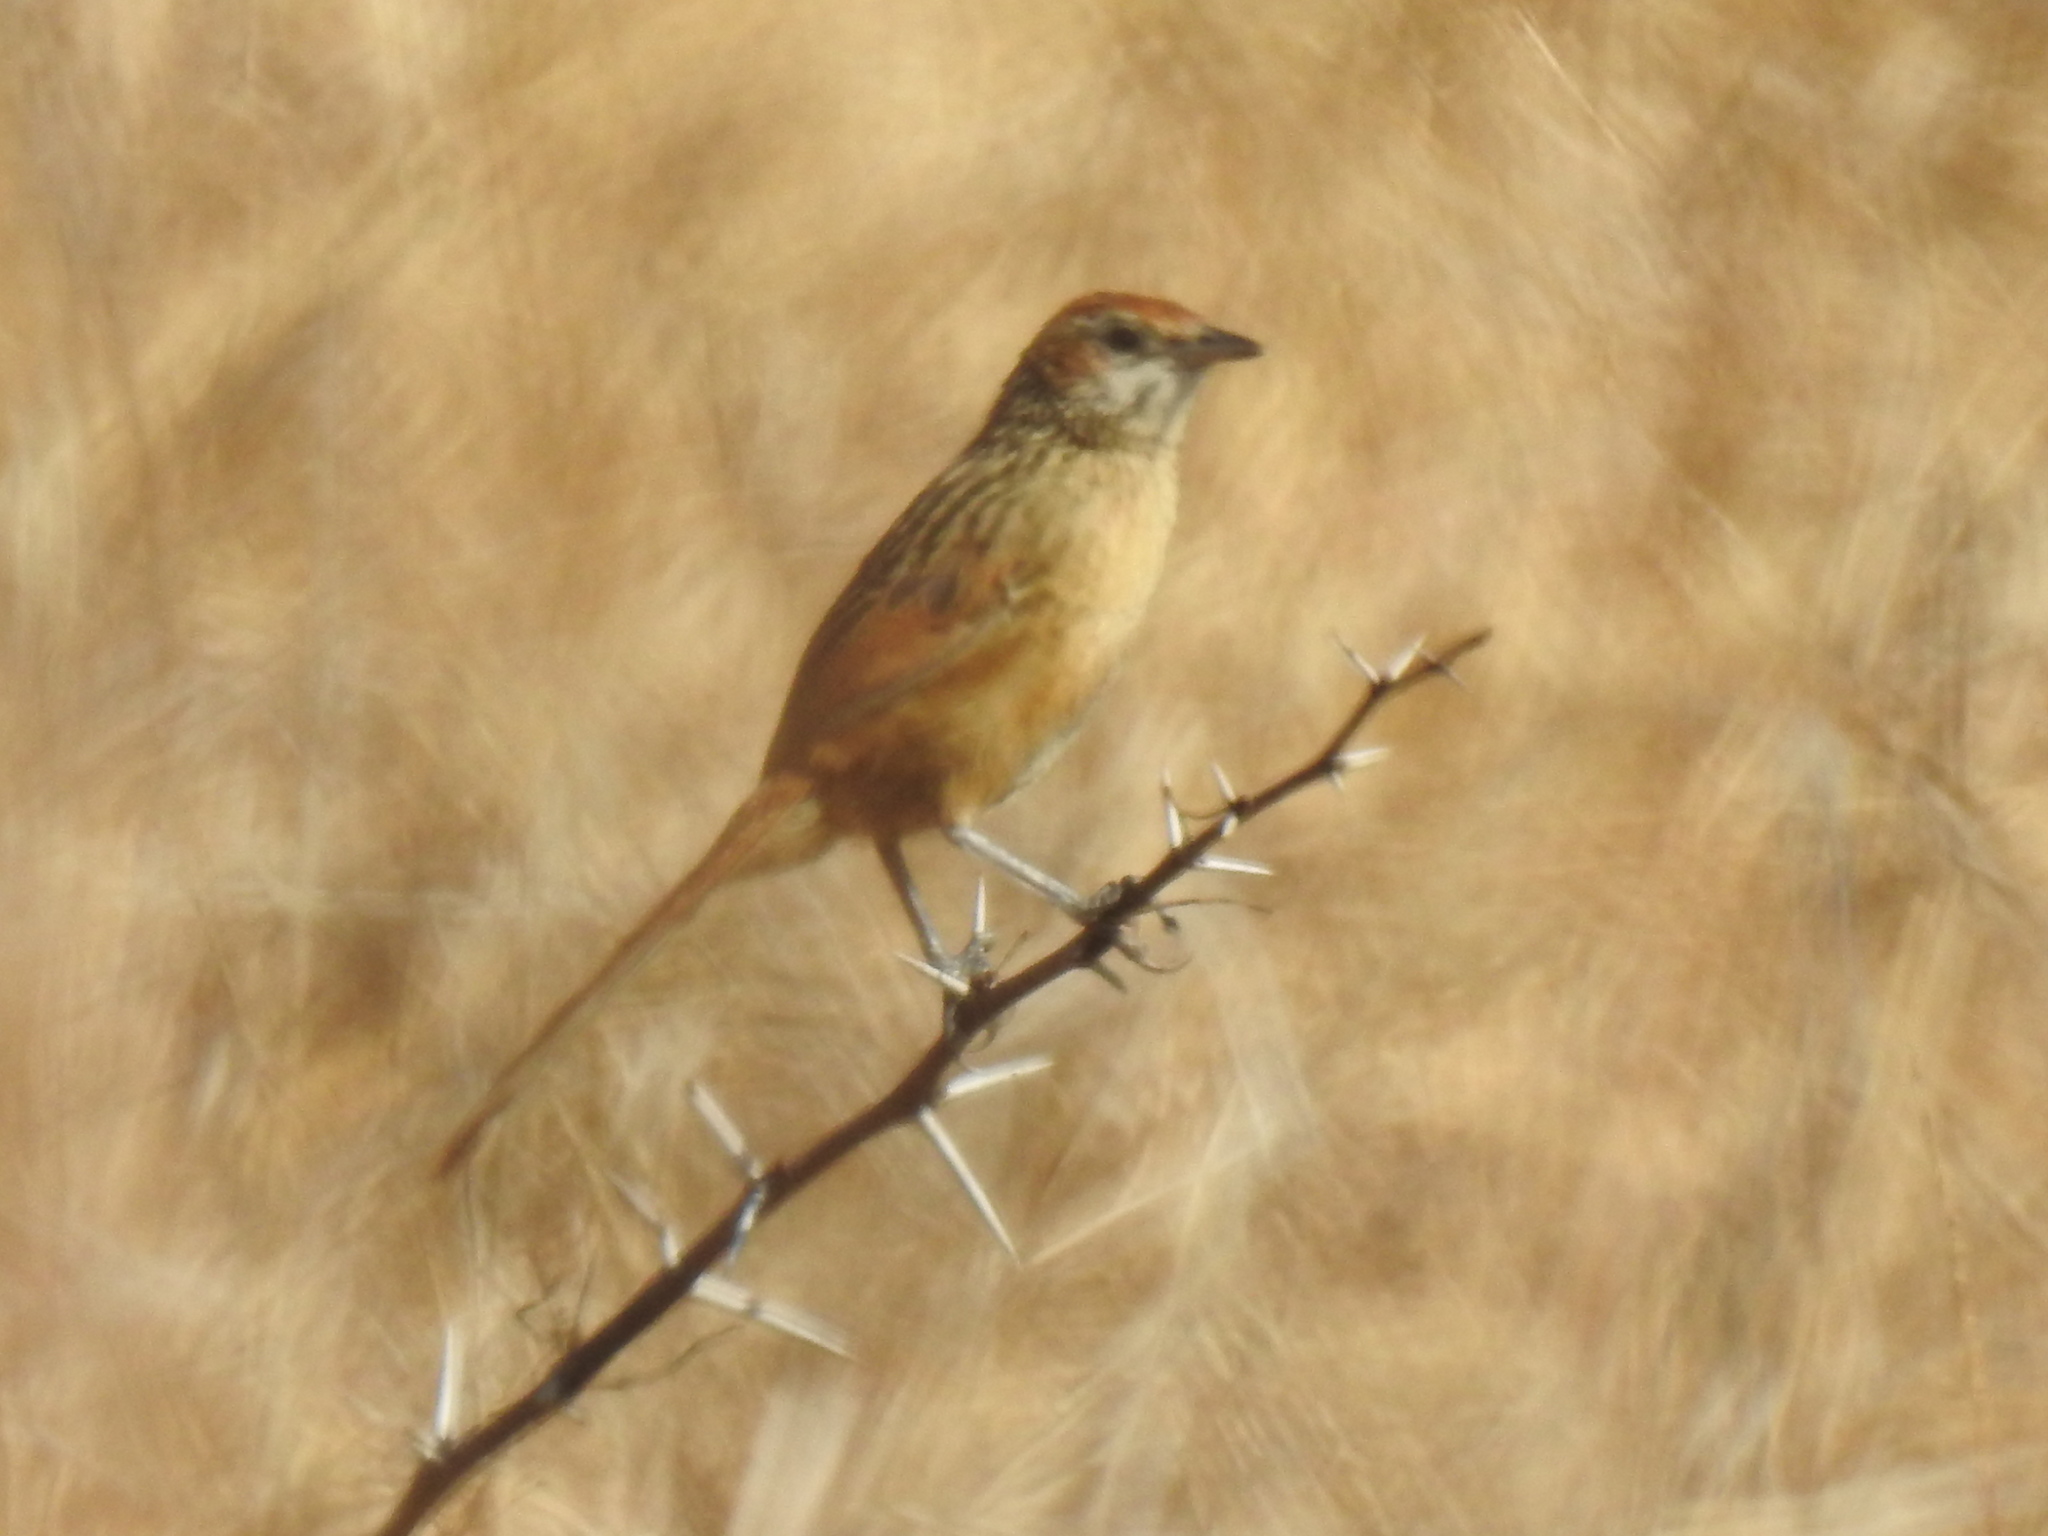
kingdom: Animalia
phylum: Chordata
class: Aves
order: Passeriformes
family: Macrosphenidae
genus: Sphenoeacus
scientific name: Sphenoeacus afer
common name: Cape grassbird
